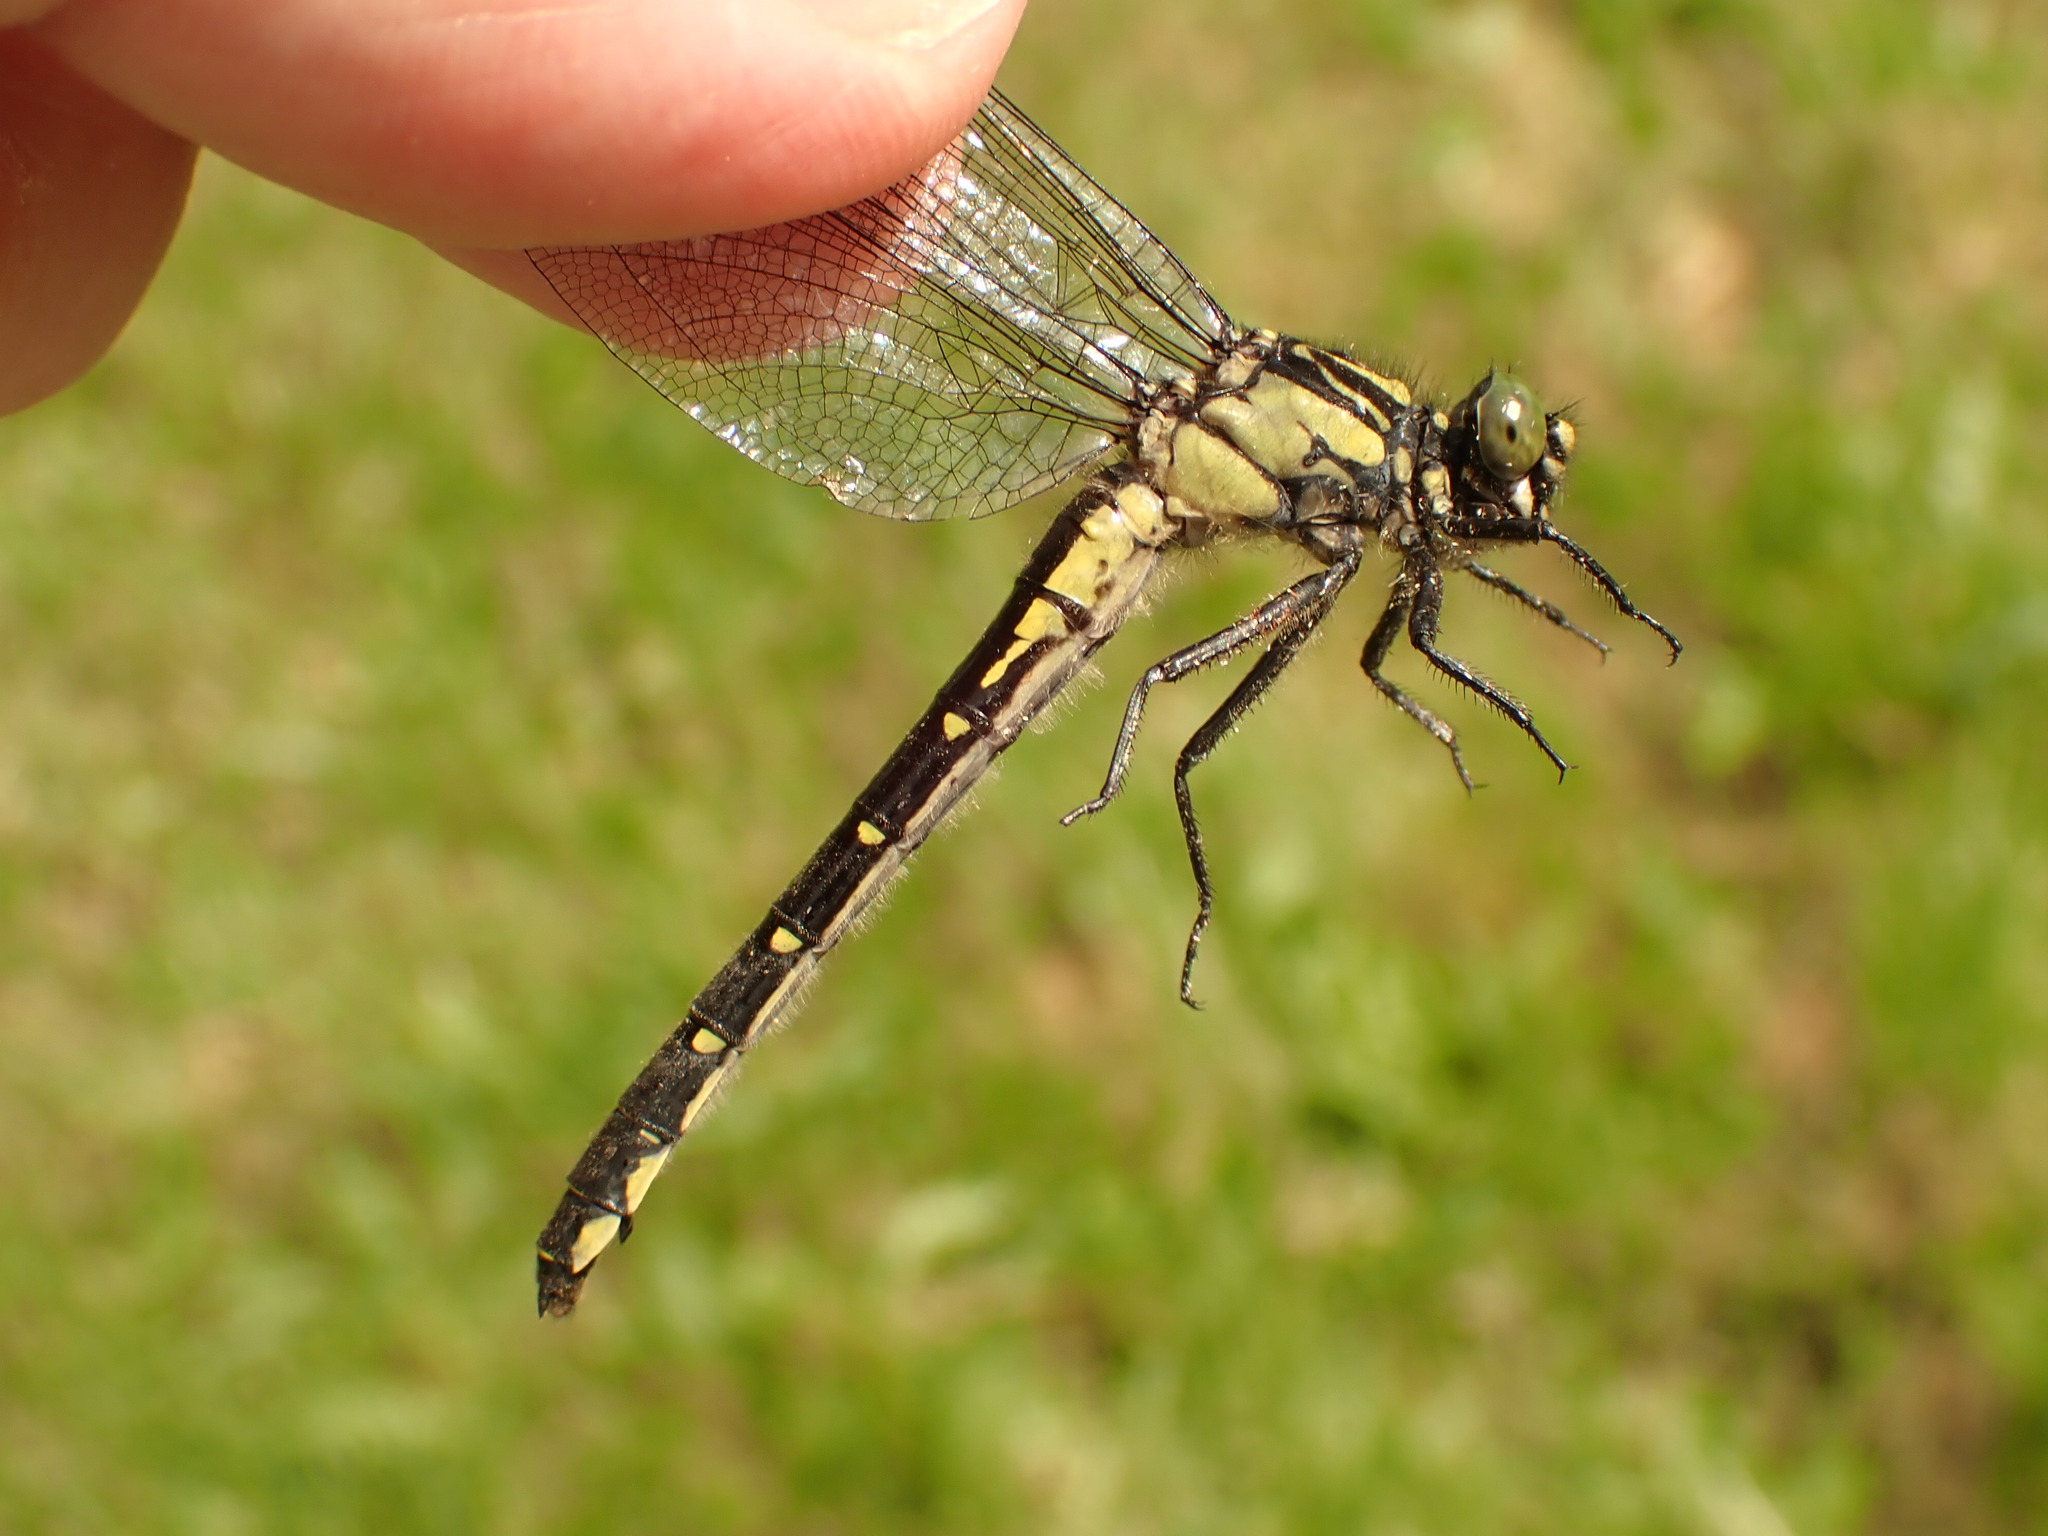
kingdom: Animalia
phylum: Arthropoda
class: Insecta
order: Odonata
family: Gomphidae
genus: Hylogomphus
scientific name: Hylogomphus adelphus
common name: Mustached clubtail
